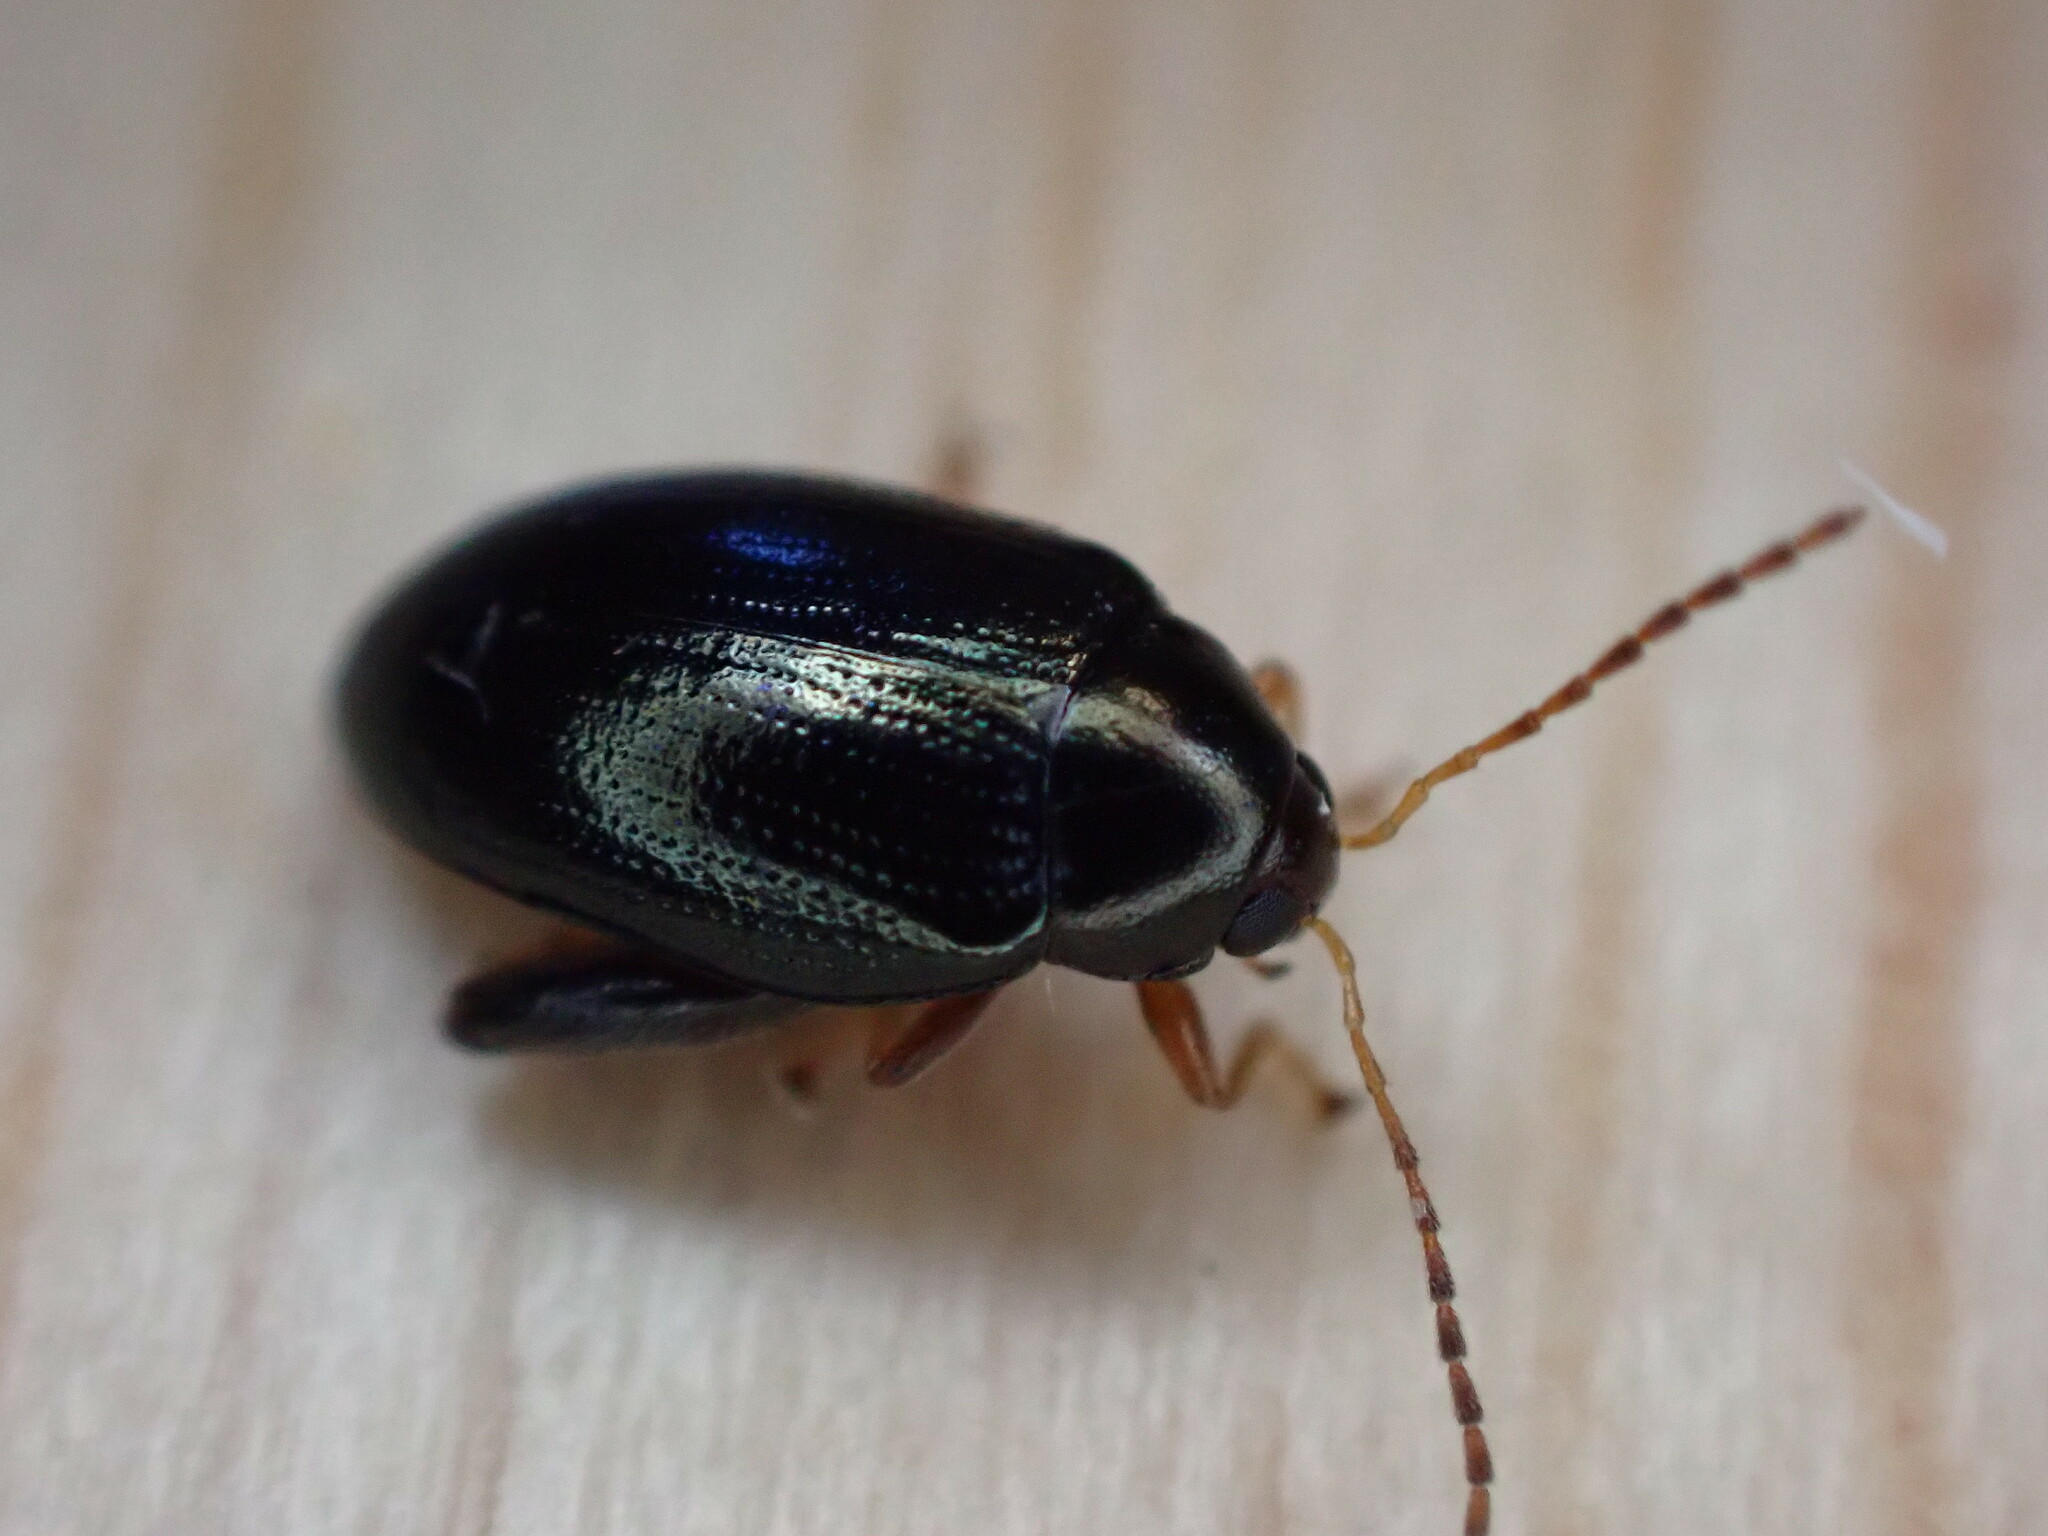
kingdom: Animalia
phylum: Arthropoda
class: Insecta
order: Coleoptera
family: Chrysomelidae
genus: Psylliodes
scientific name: Psylliodes chrysocephalus
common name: Cabbage-stem flea beetle
